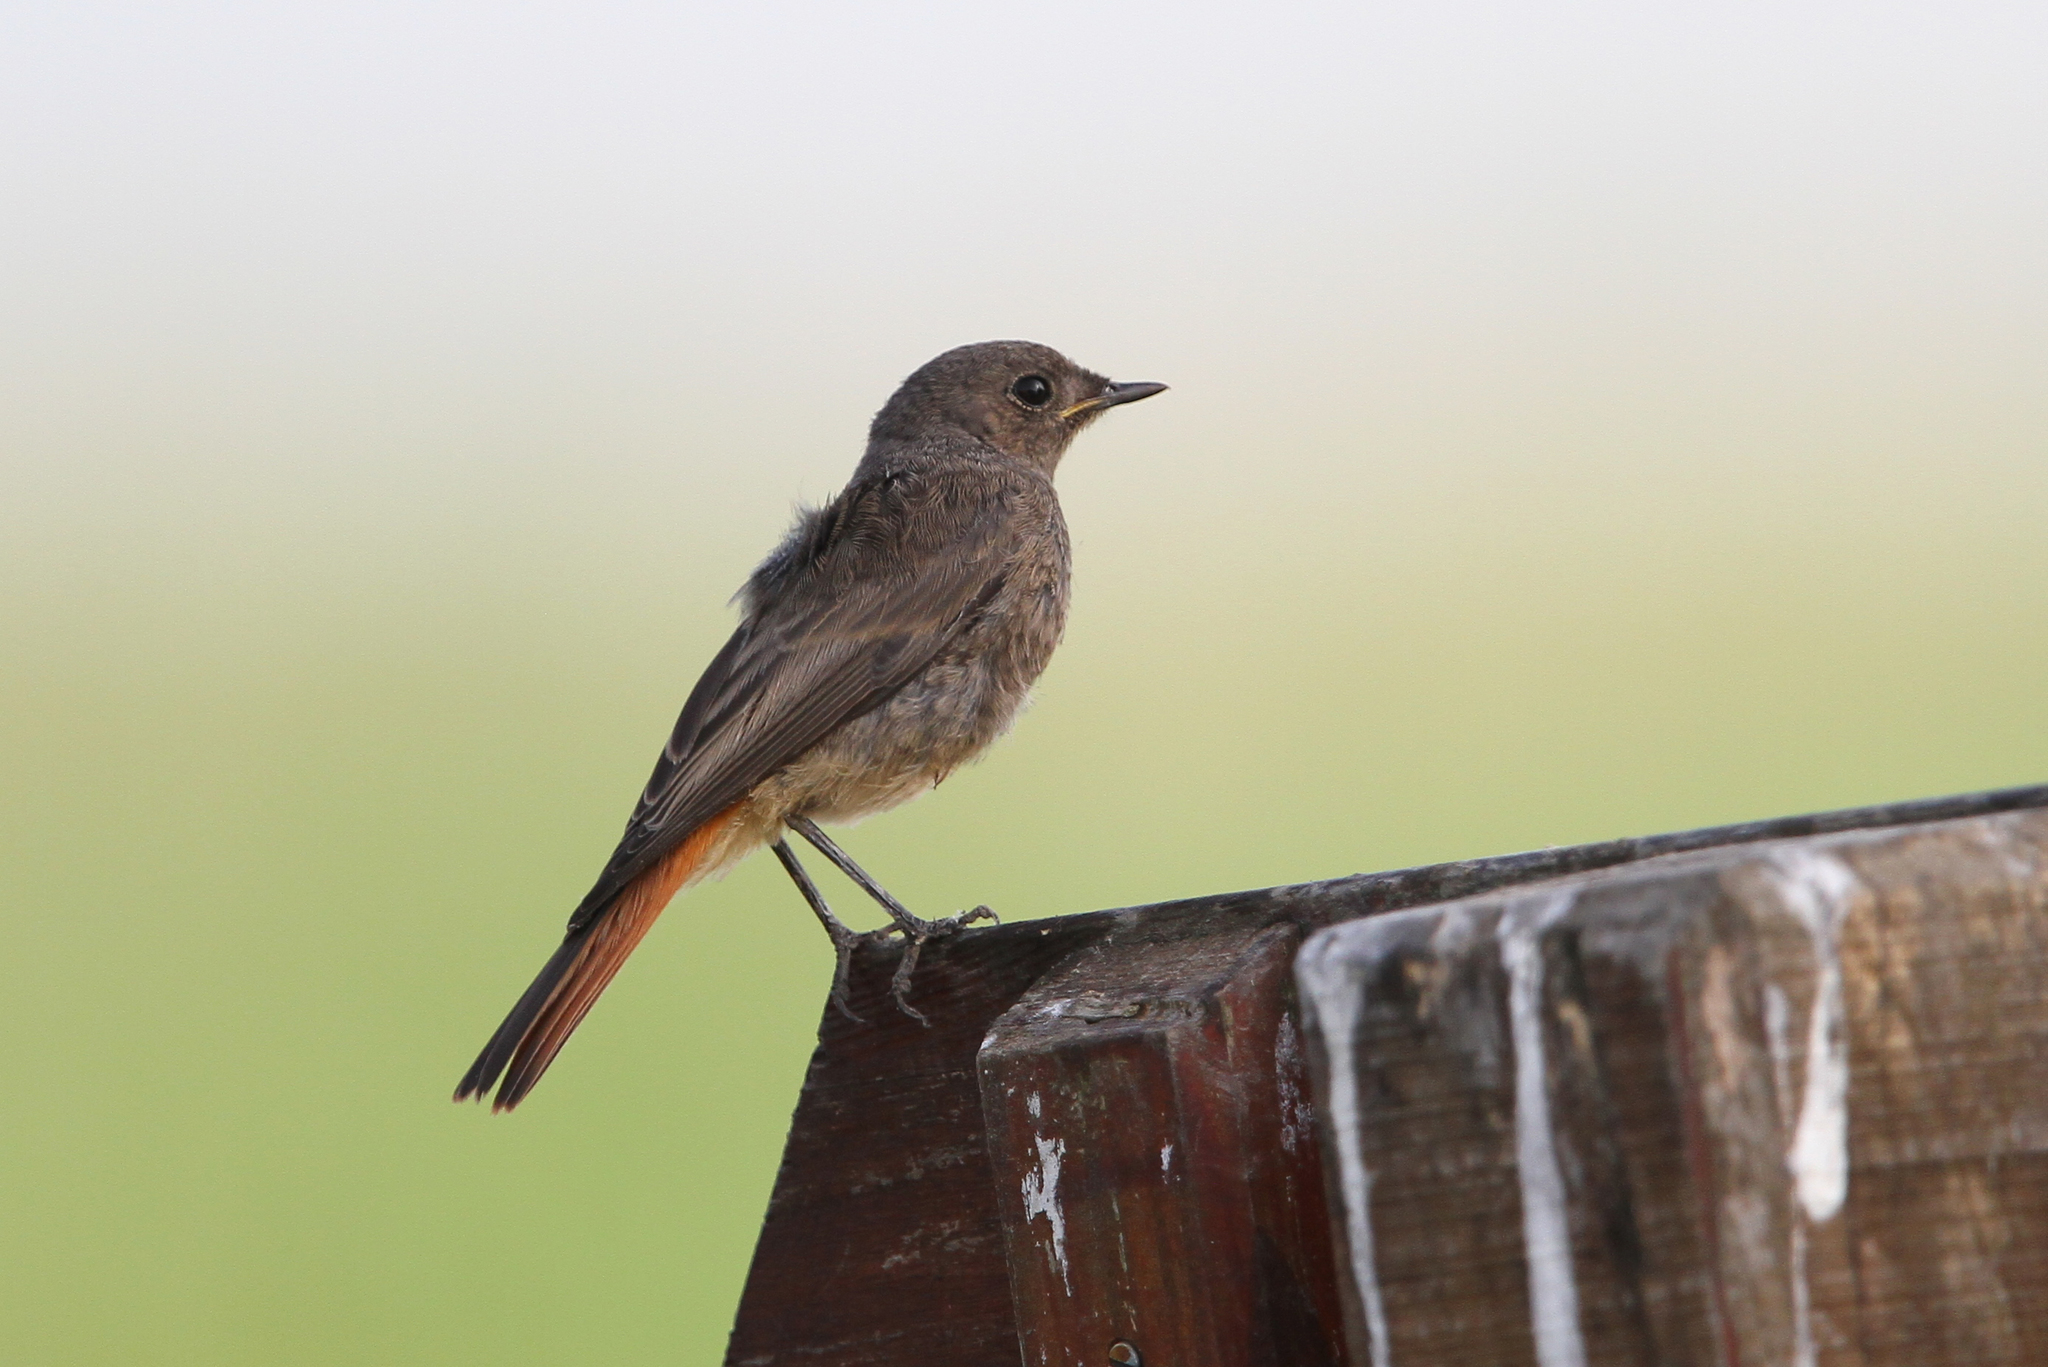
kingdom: Animalia
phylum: Chordata
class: Aves
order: Passeriformes
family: Muscicapidae
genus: Phoenicurus
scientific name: Phoenicurus ochruros
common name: Black redstart
